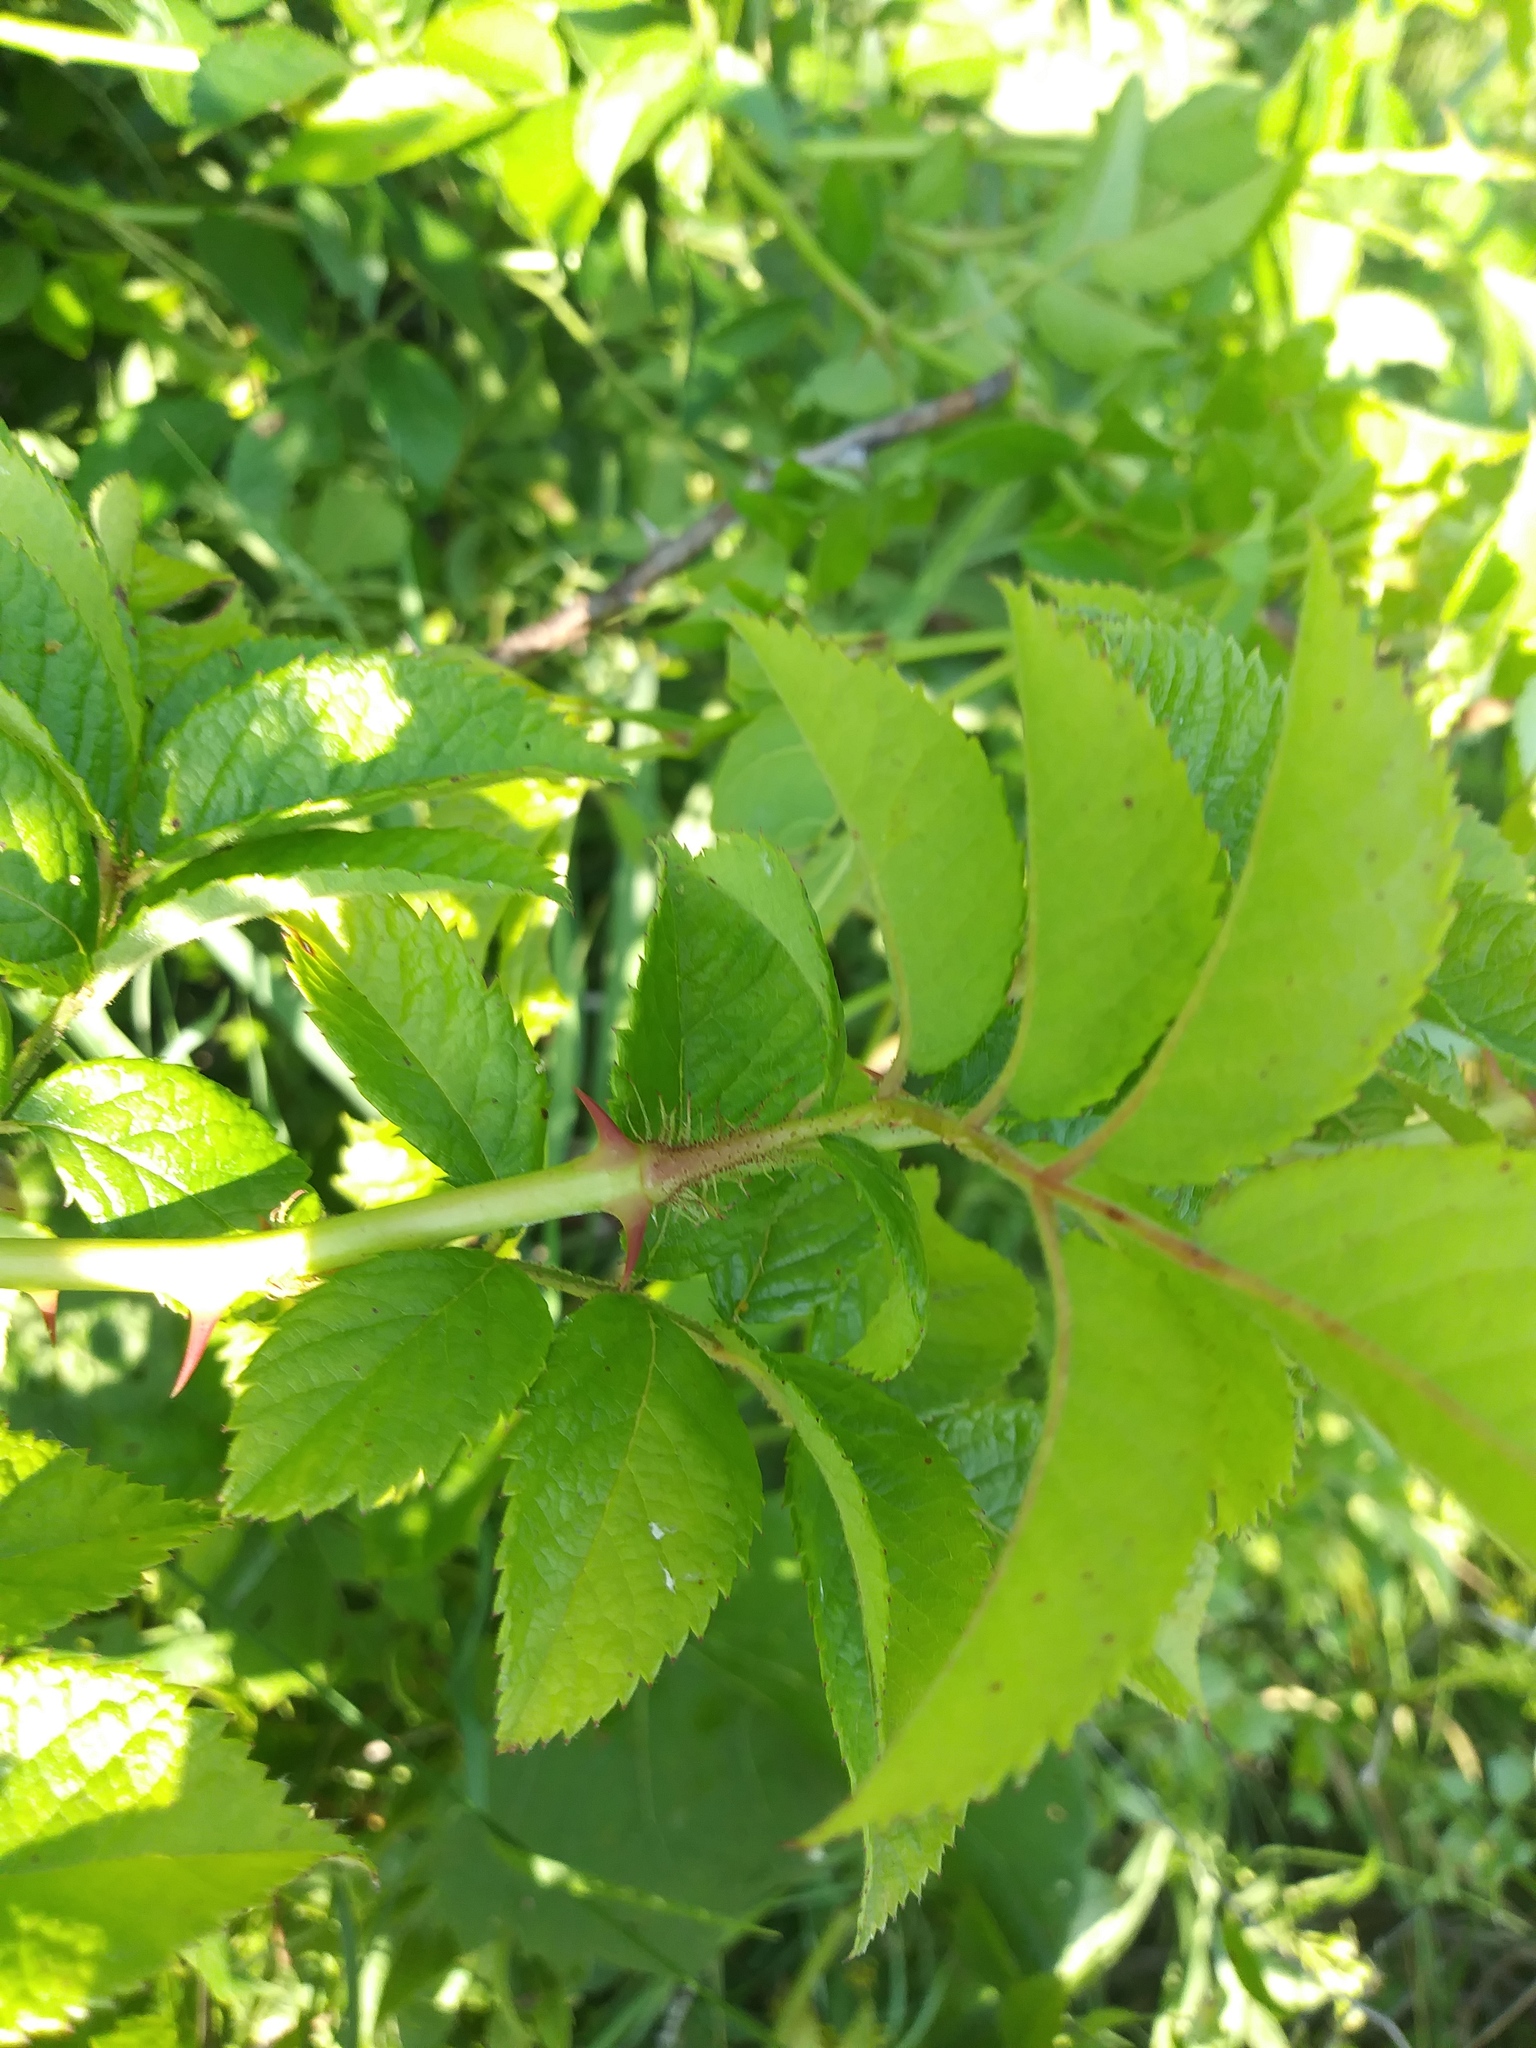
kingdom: Plantae
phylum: Tracheophyta
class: Magnoliopsida
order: Rosales
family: Rosaceae
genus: Rosa
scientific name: Rosa multiflora
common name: Multiflora rose
